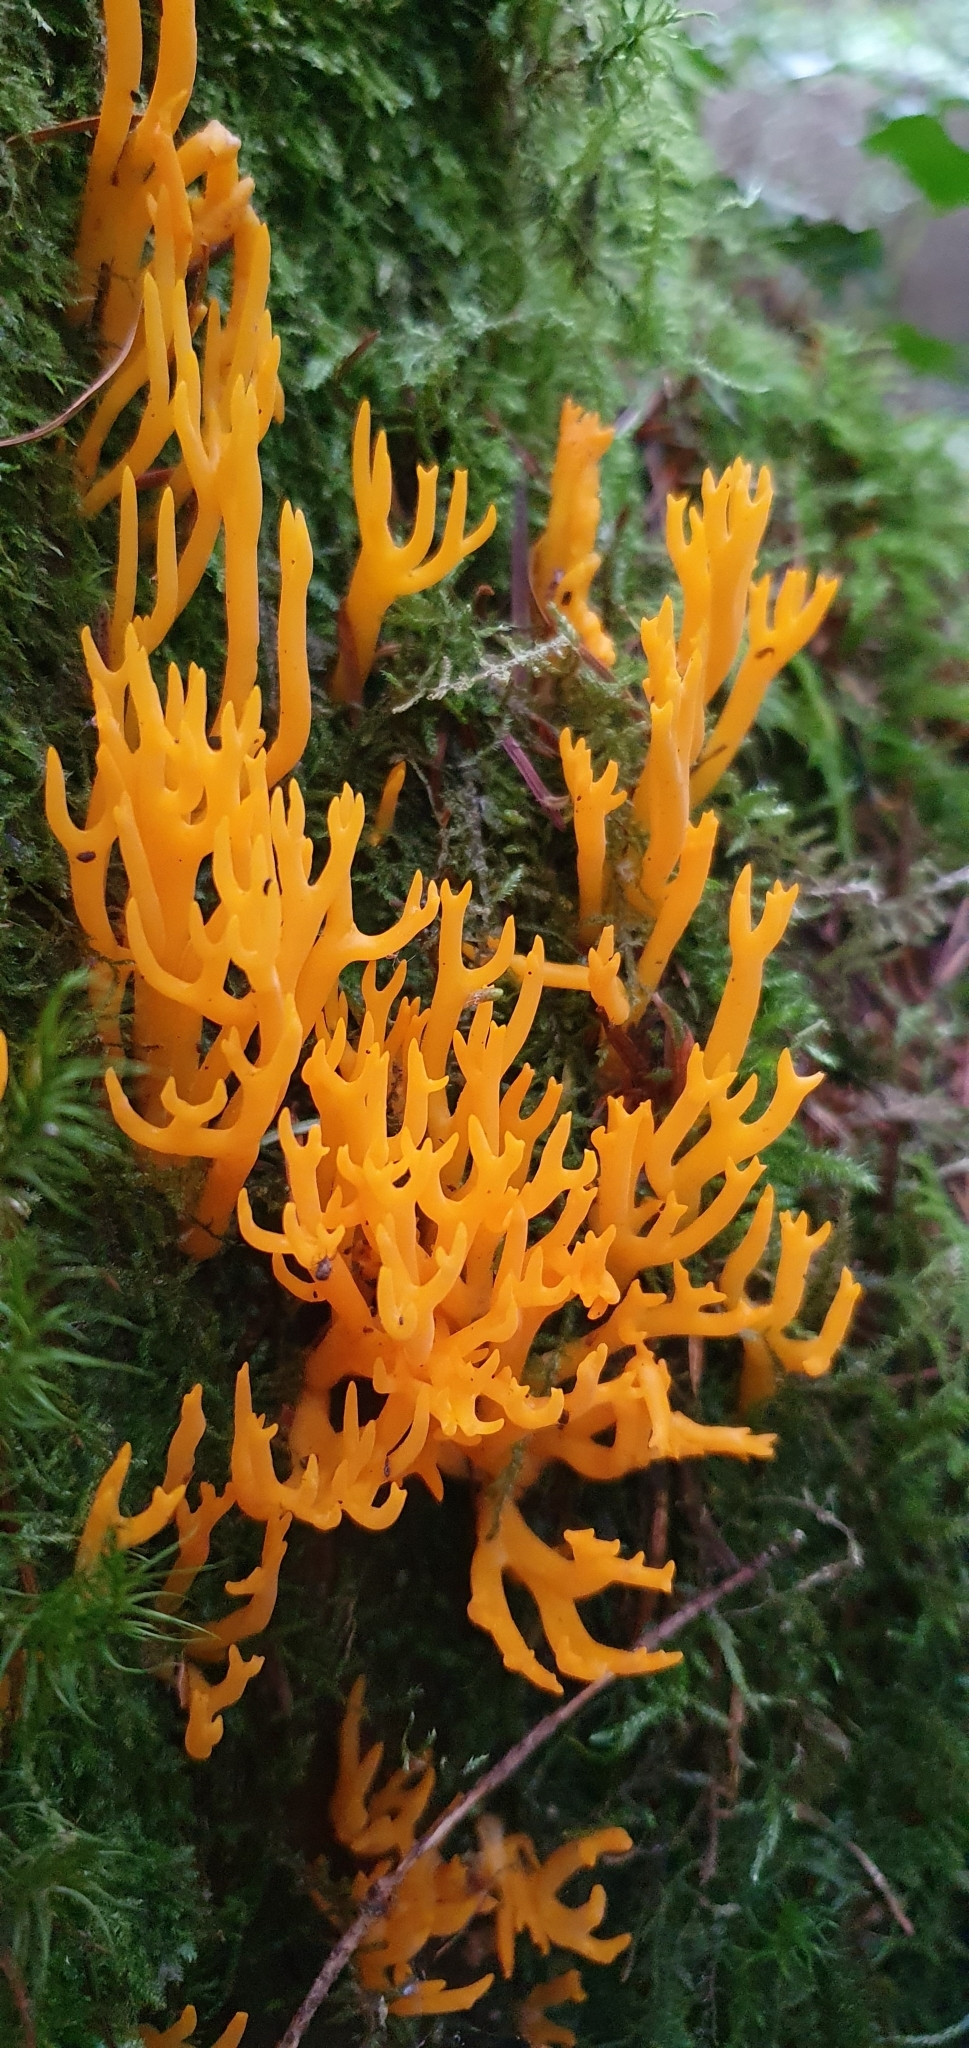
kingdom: Fungi
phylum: Basidiomycota
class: Dacrymycetes
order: Dacrymycetales
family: Dacrymycetaceae
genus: Calocera
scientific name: Calocera viscosa
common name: Yellow stagshorn
